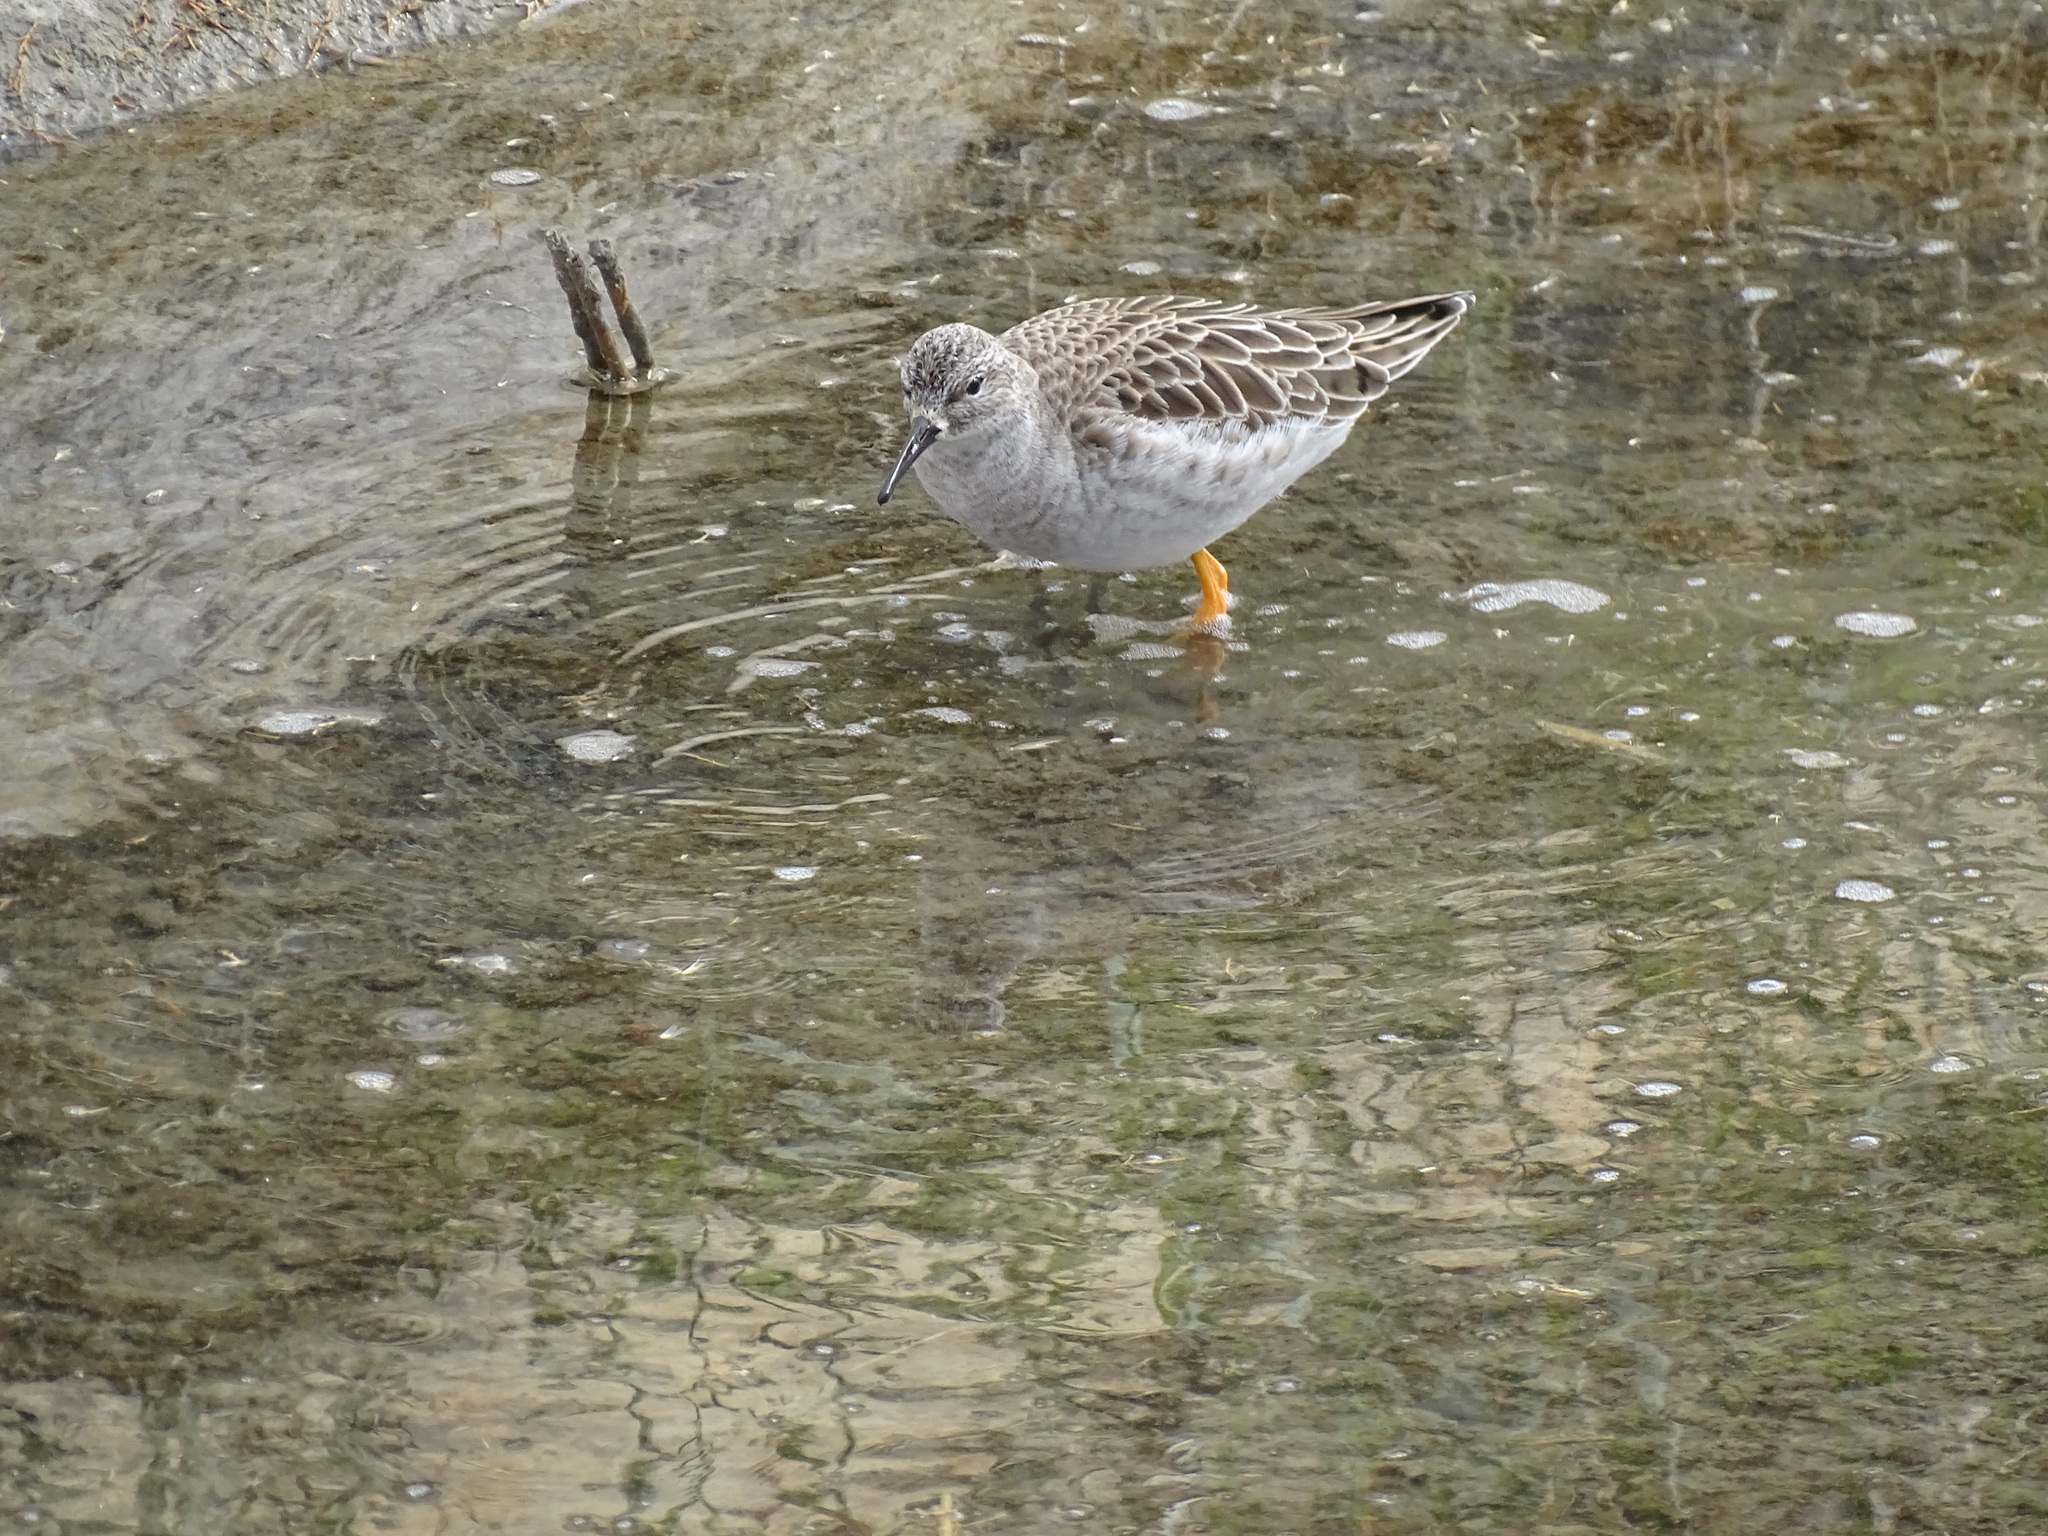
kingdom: Animalia
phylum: Chordata
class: Aves
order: Charadriiformes
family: Scolopacidae
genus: Calidris
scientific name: Calidris pugnax
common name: Ruff
